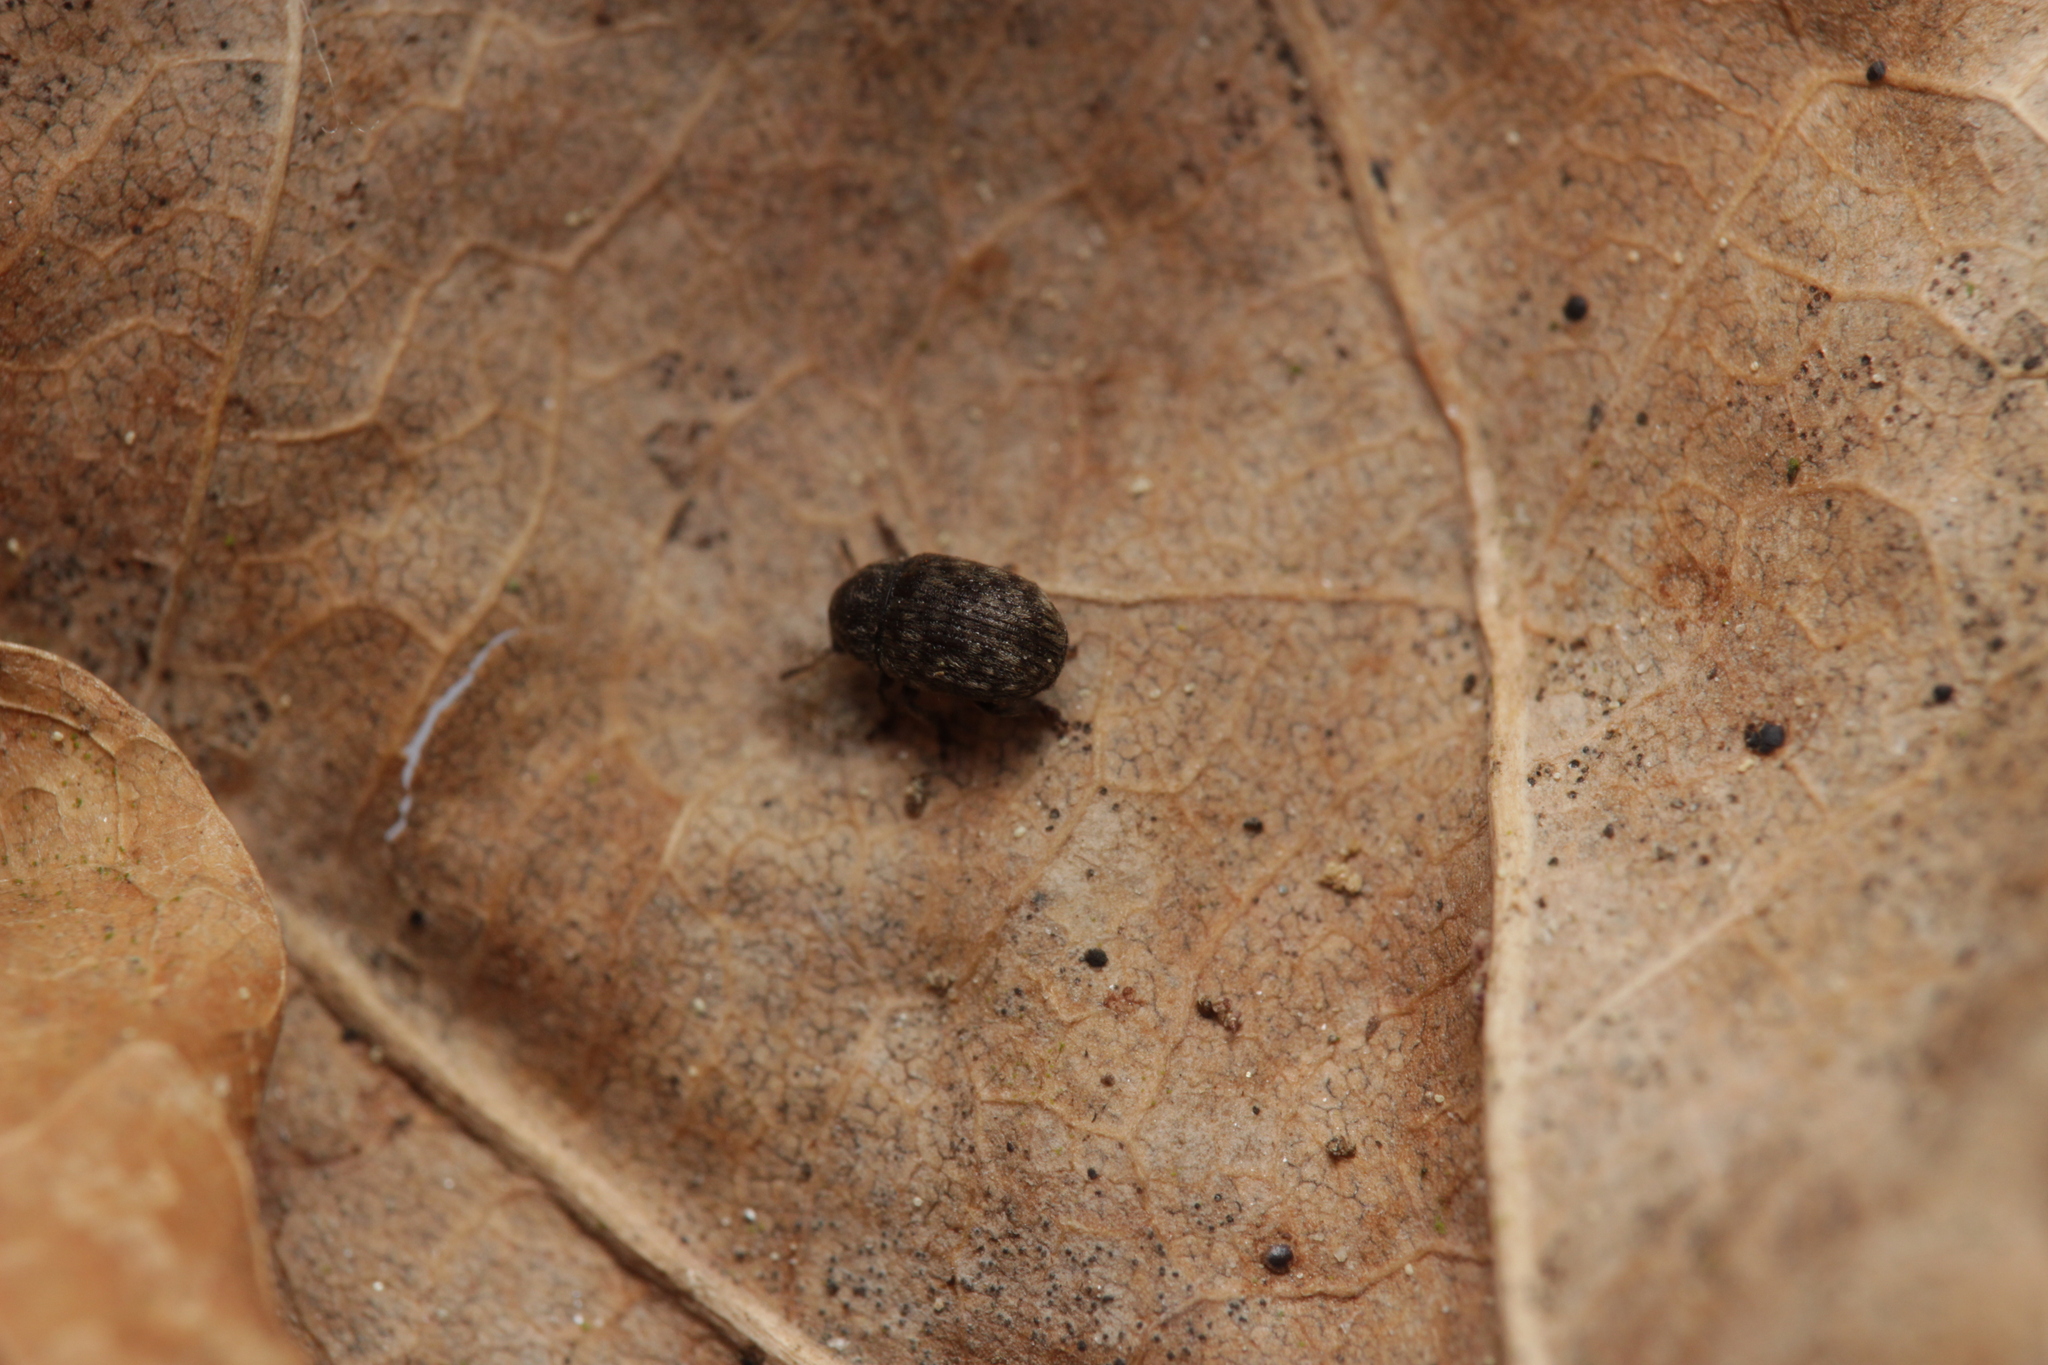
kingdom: Animalia
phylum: Arthropoda
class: Insecta
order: Coleoptera
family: Anthribidae
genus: Anthribus
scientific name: Anthribus nebulosus
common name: Fungus weevil
